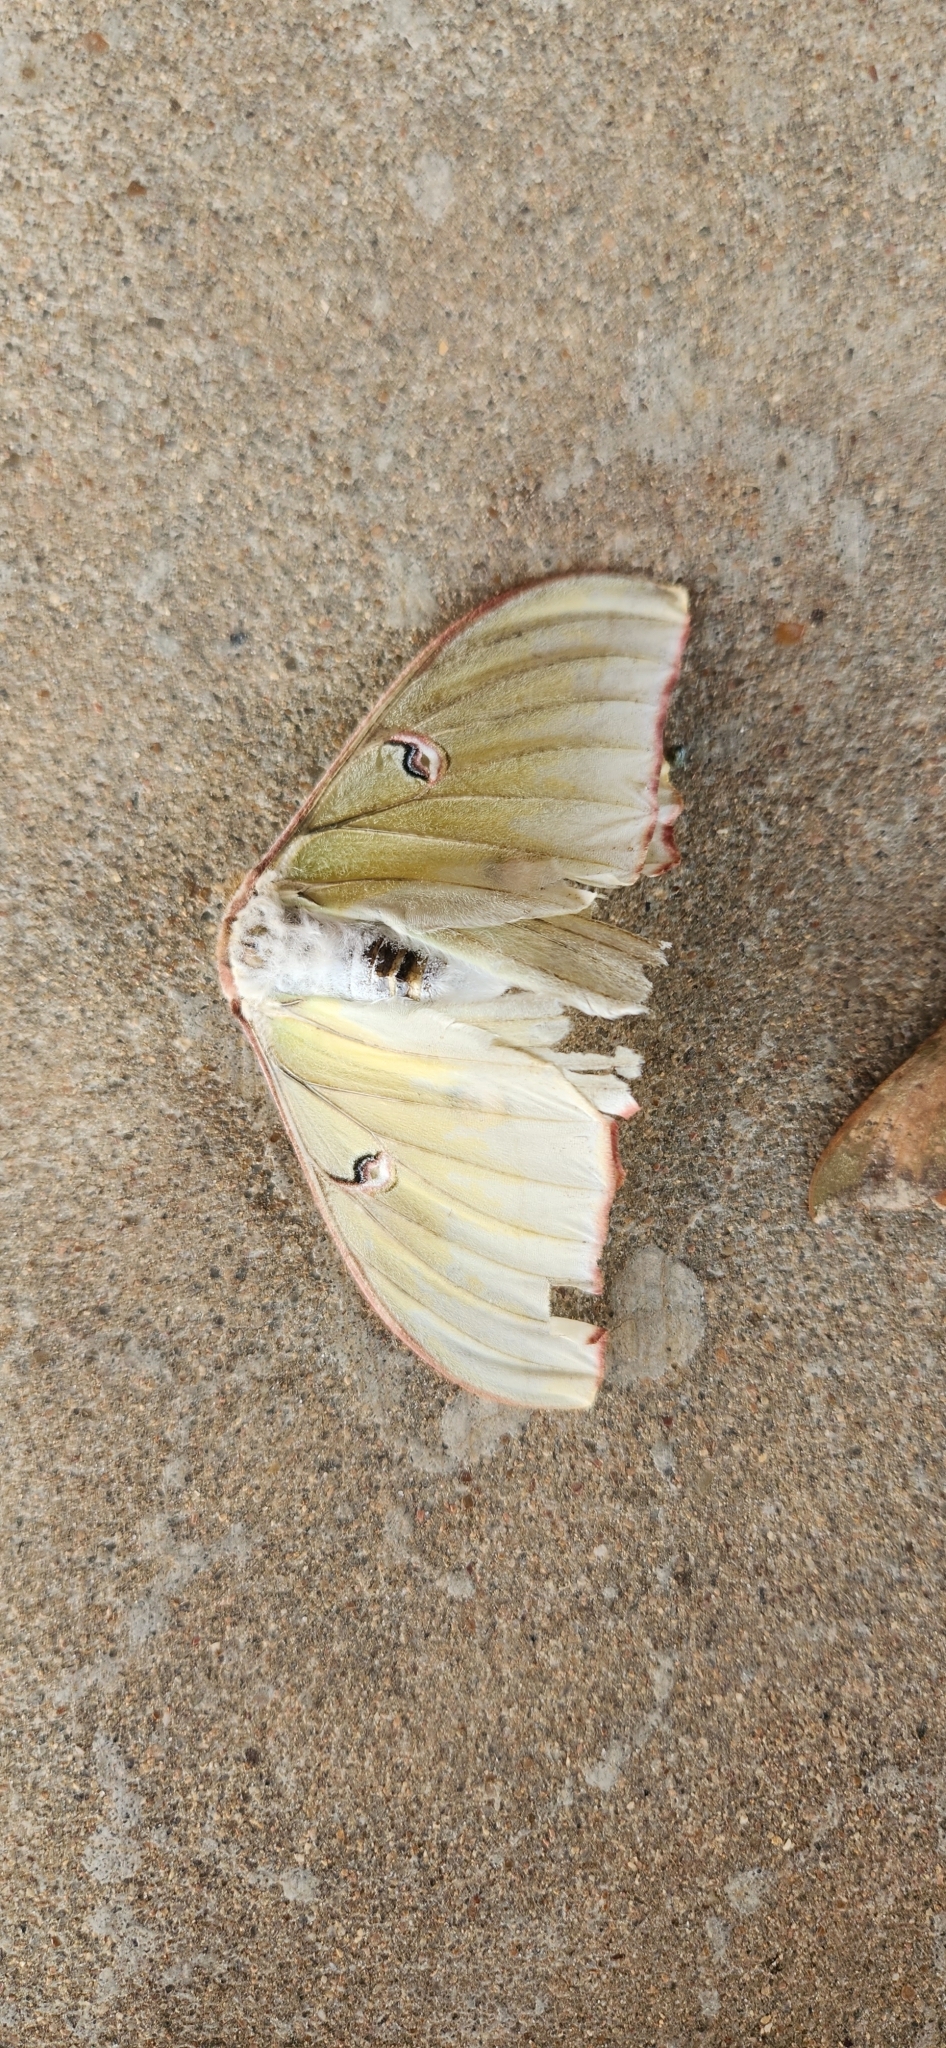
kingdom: Animalia
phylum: Arthropoda
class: Insecta
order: Lepidoptera
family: Saturniidae
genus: Actias
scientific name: Actias luna
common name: Luna moth
